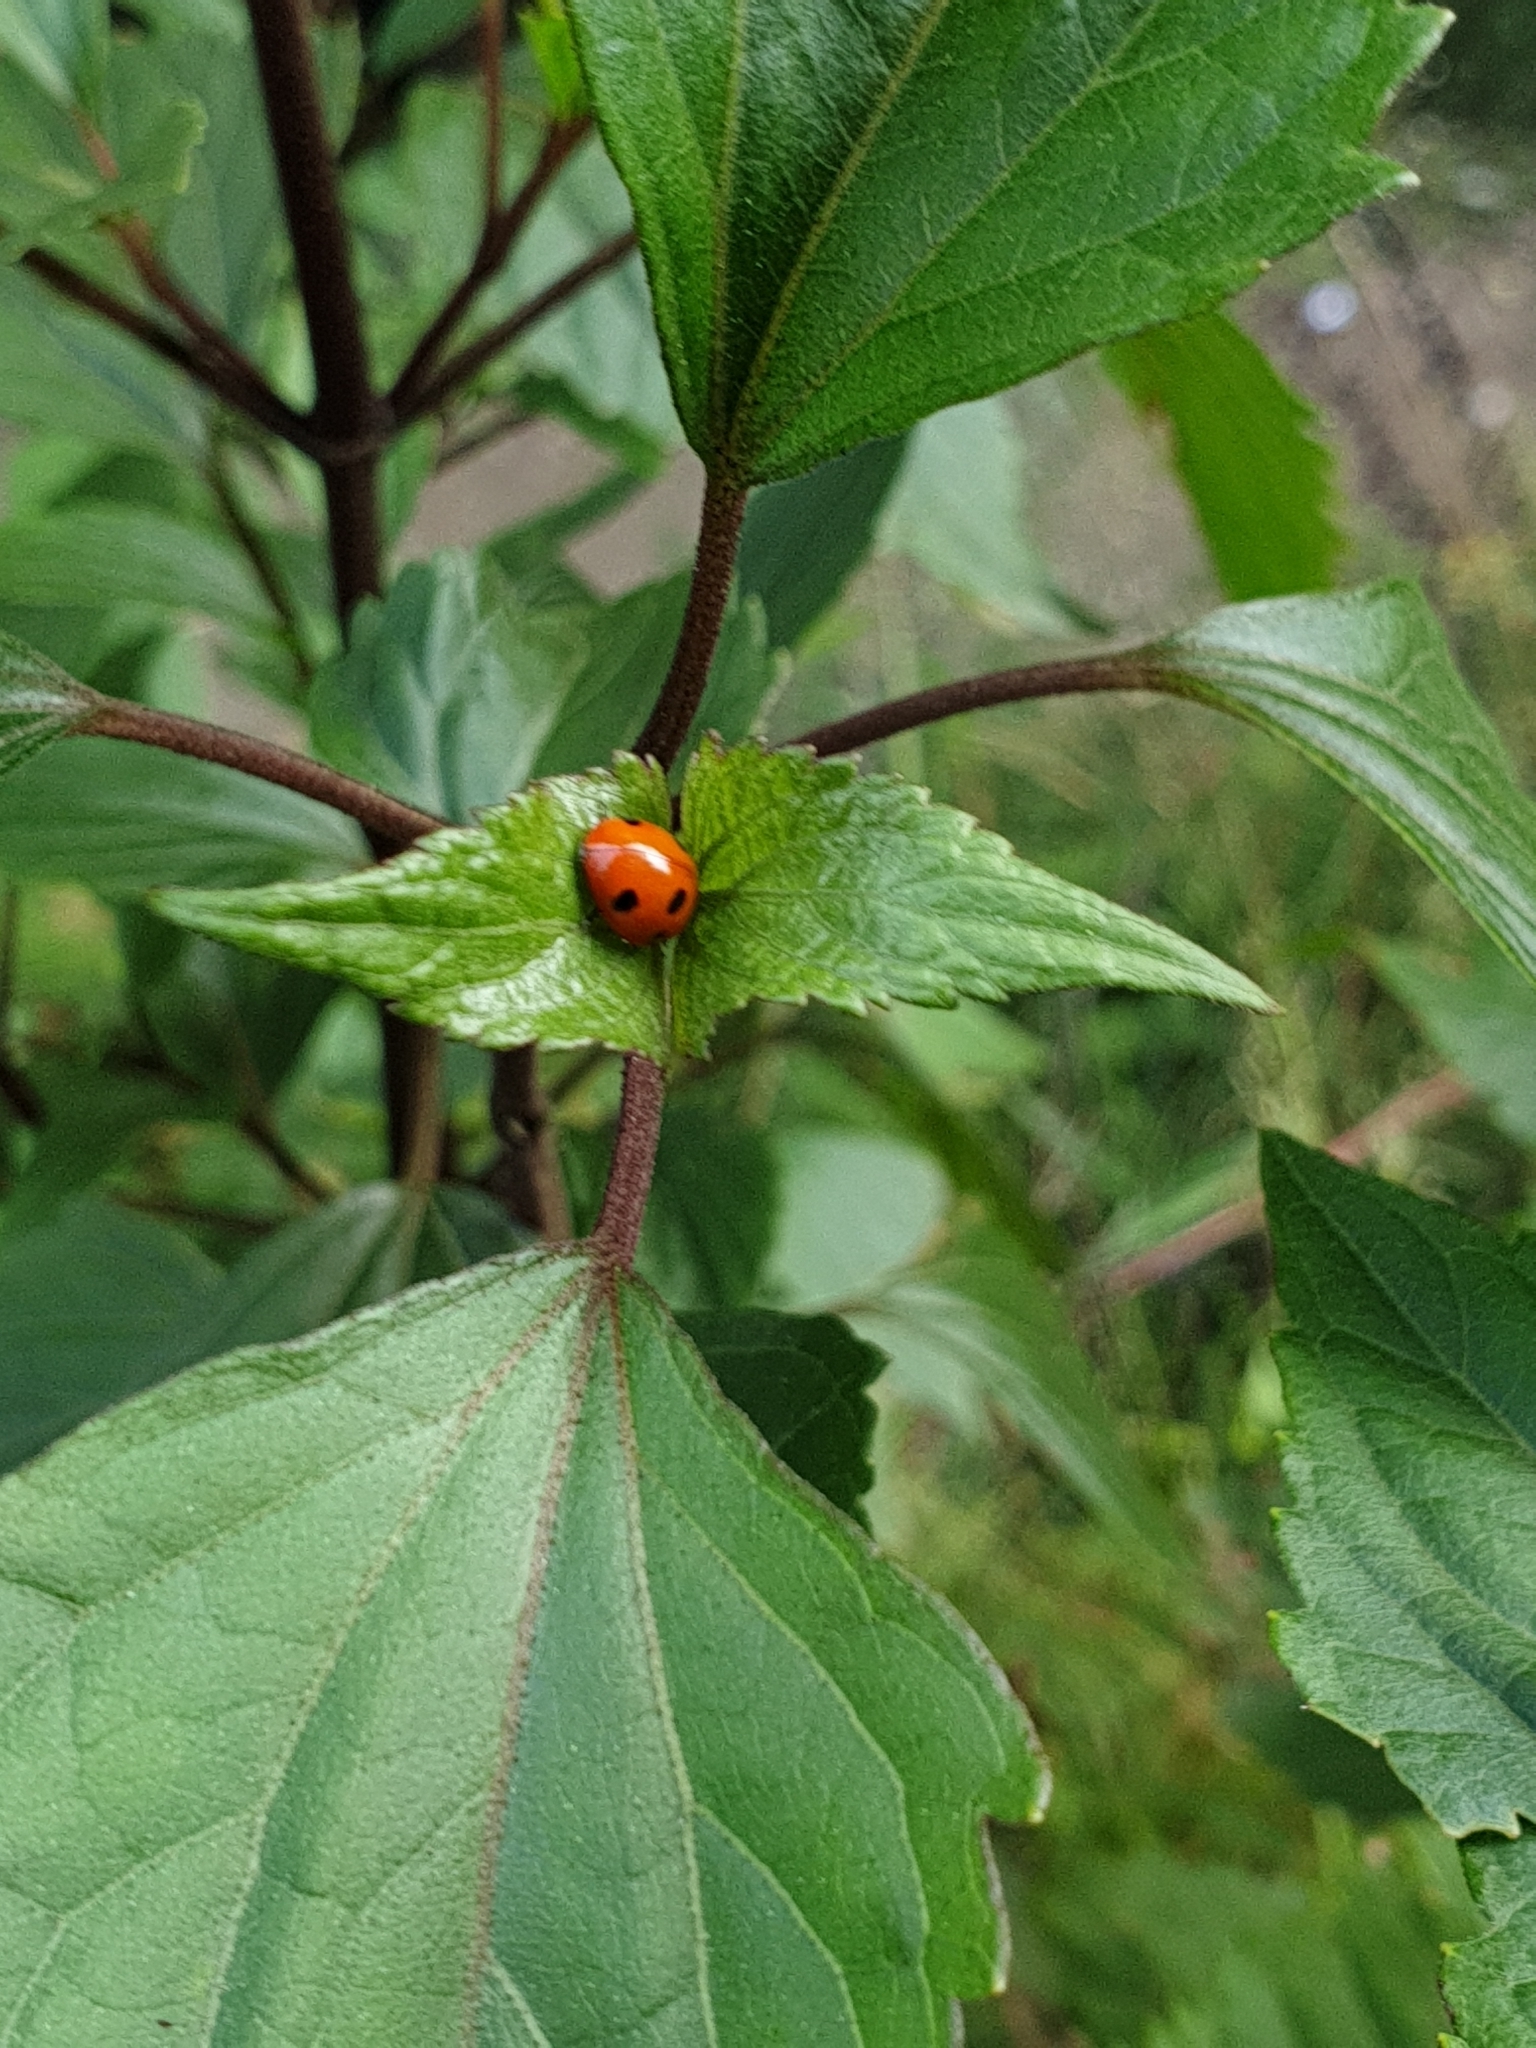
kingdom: Animalia
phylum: Arthropoda
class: Insecta
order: Coleoptera
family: Coccinellidae
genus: Coccinella
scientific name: Coccinella septempunctata
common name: Sevenspotted lady beetle
